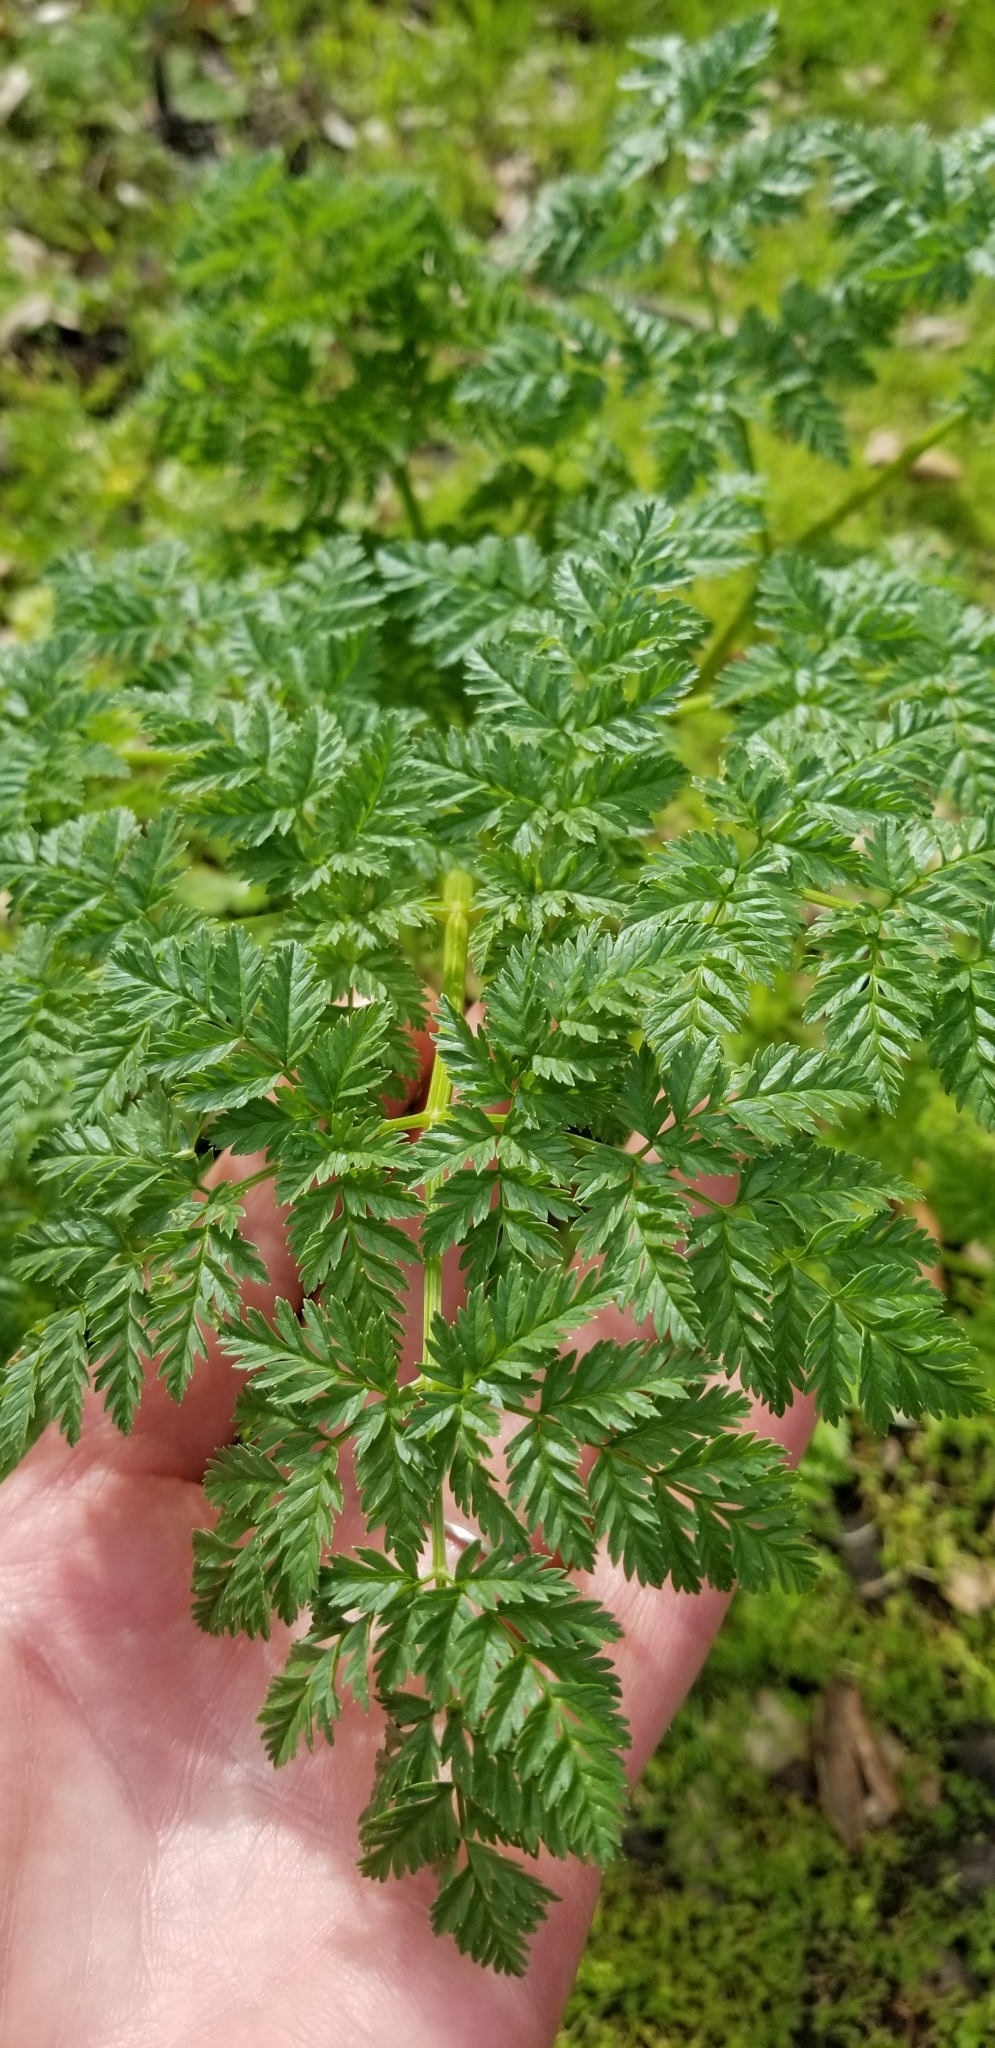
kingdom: Plantae
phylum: Tracheophyta
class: Magnoliopsida
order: Apiales
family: Apiaceae
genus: Conium
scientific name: Conium maculatum
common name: Hemlock
